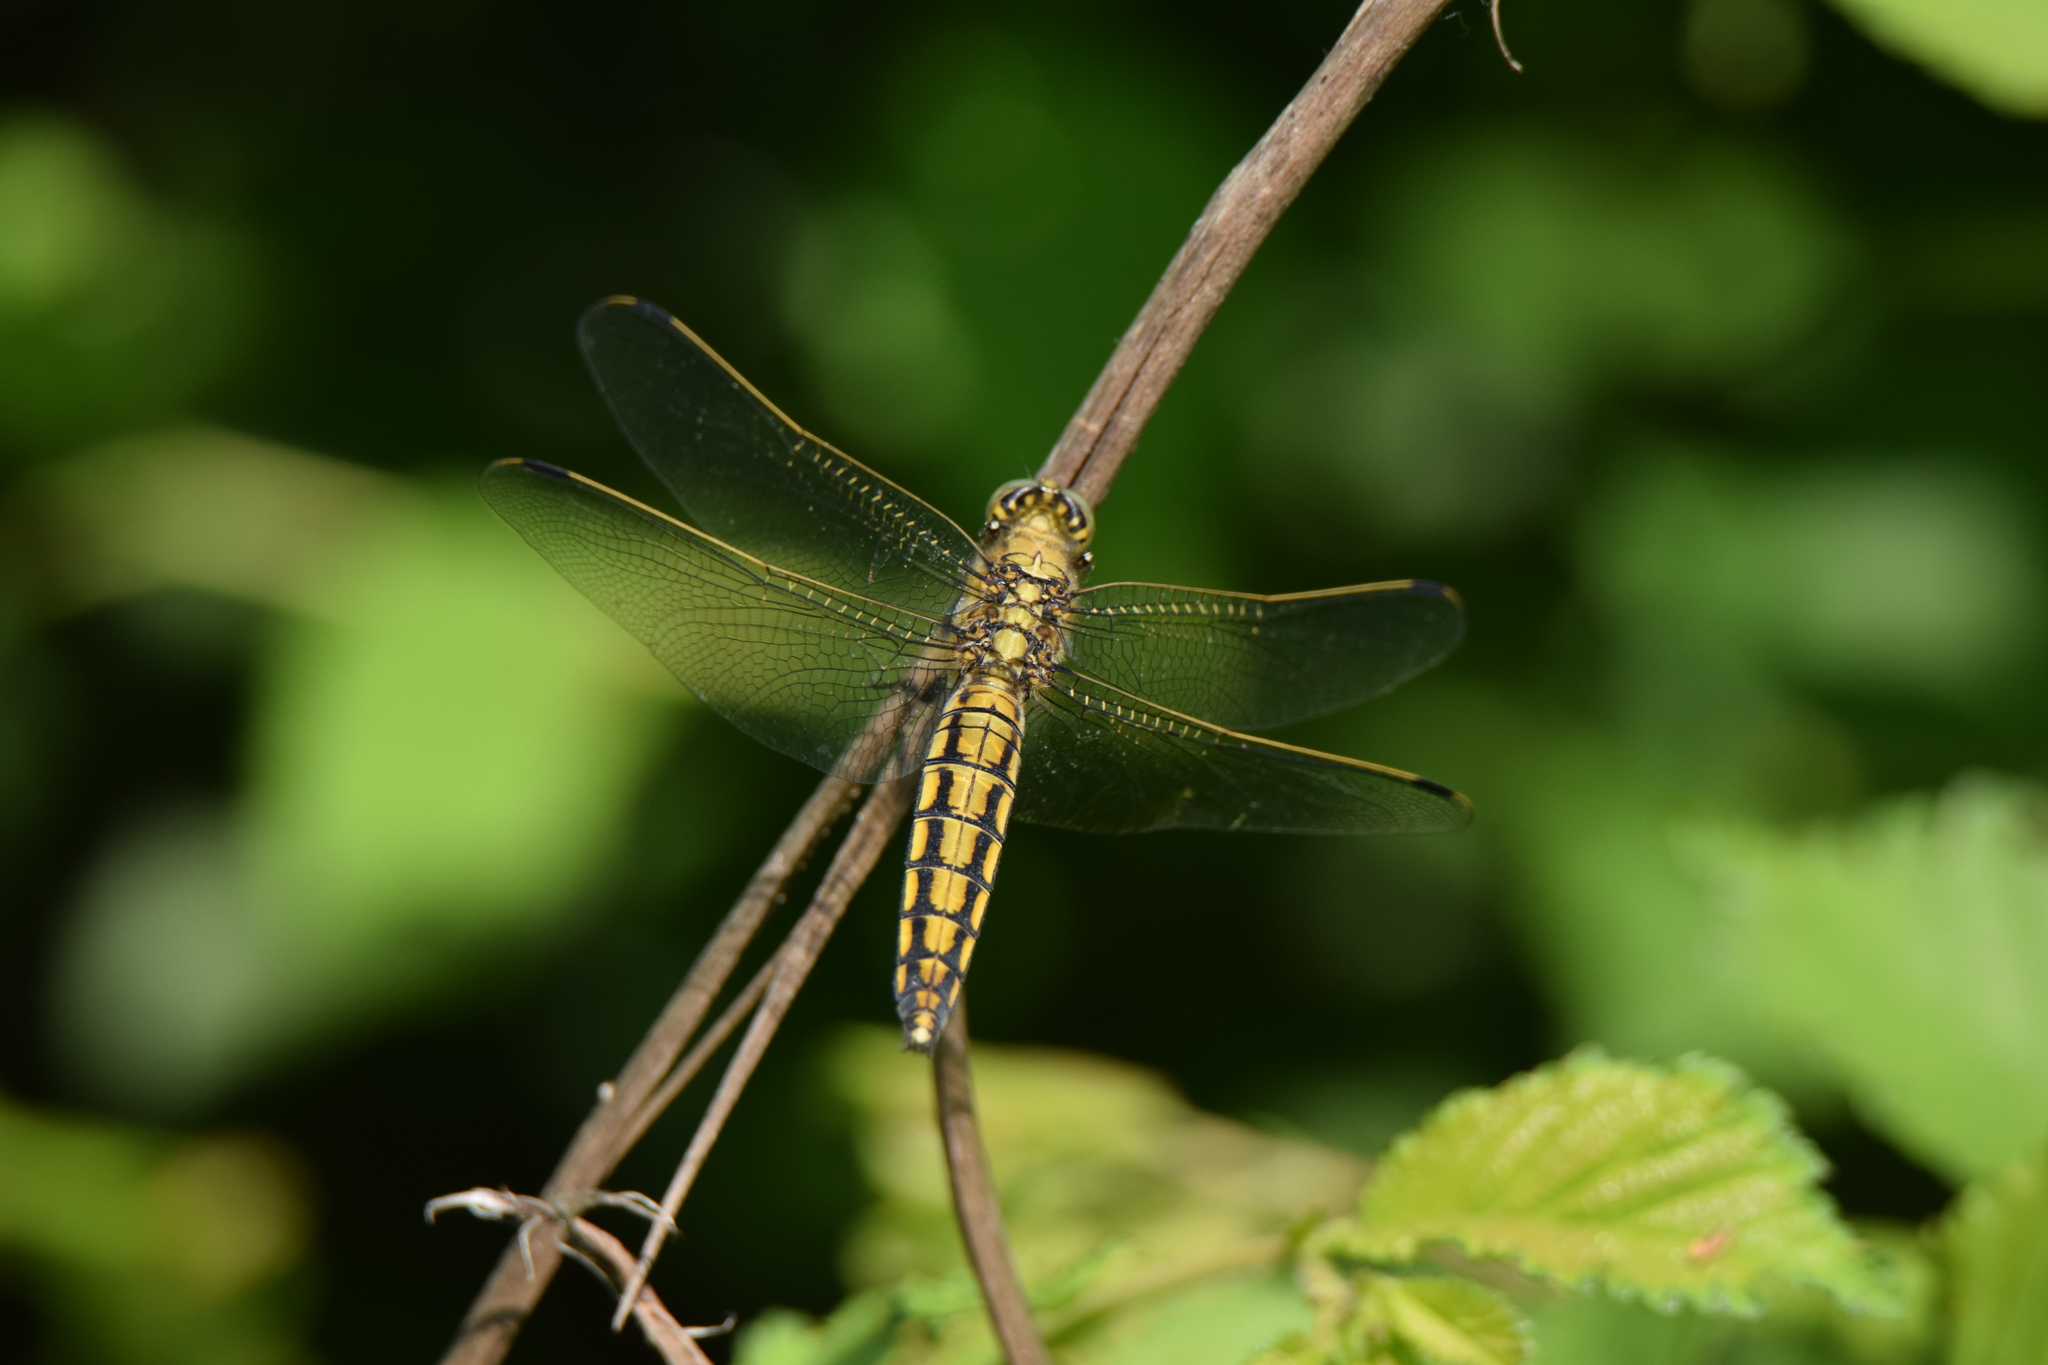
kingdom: Animalia
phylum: Arthropoda
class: Insecta
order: Odonata
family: Libellulidae
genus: Orthetrum
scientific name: Orthetrum cancellatum
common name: Black-tailed skimmer
